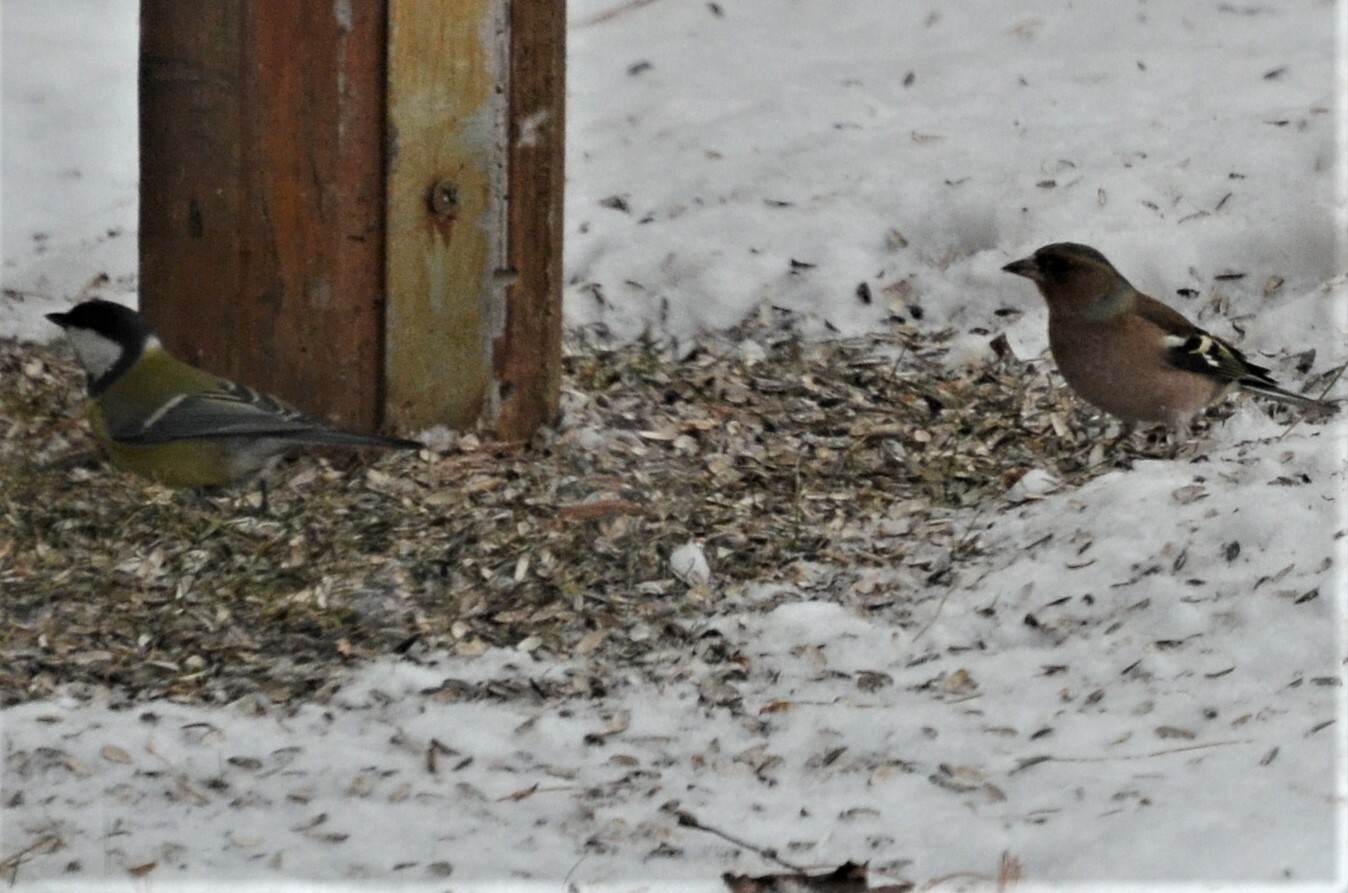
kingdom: Animalia
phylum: Chordata
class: Aves
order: Passeriformes
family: Paridae
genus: Parus
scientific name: Parus major
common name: Great tit
